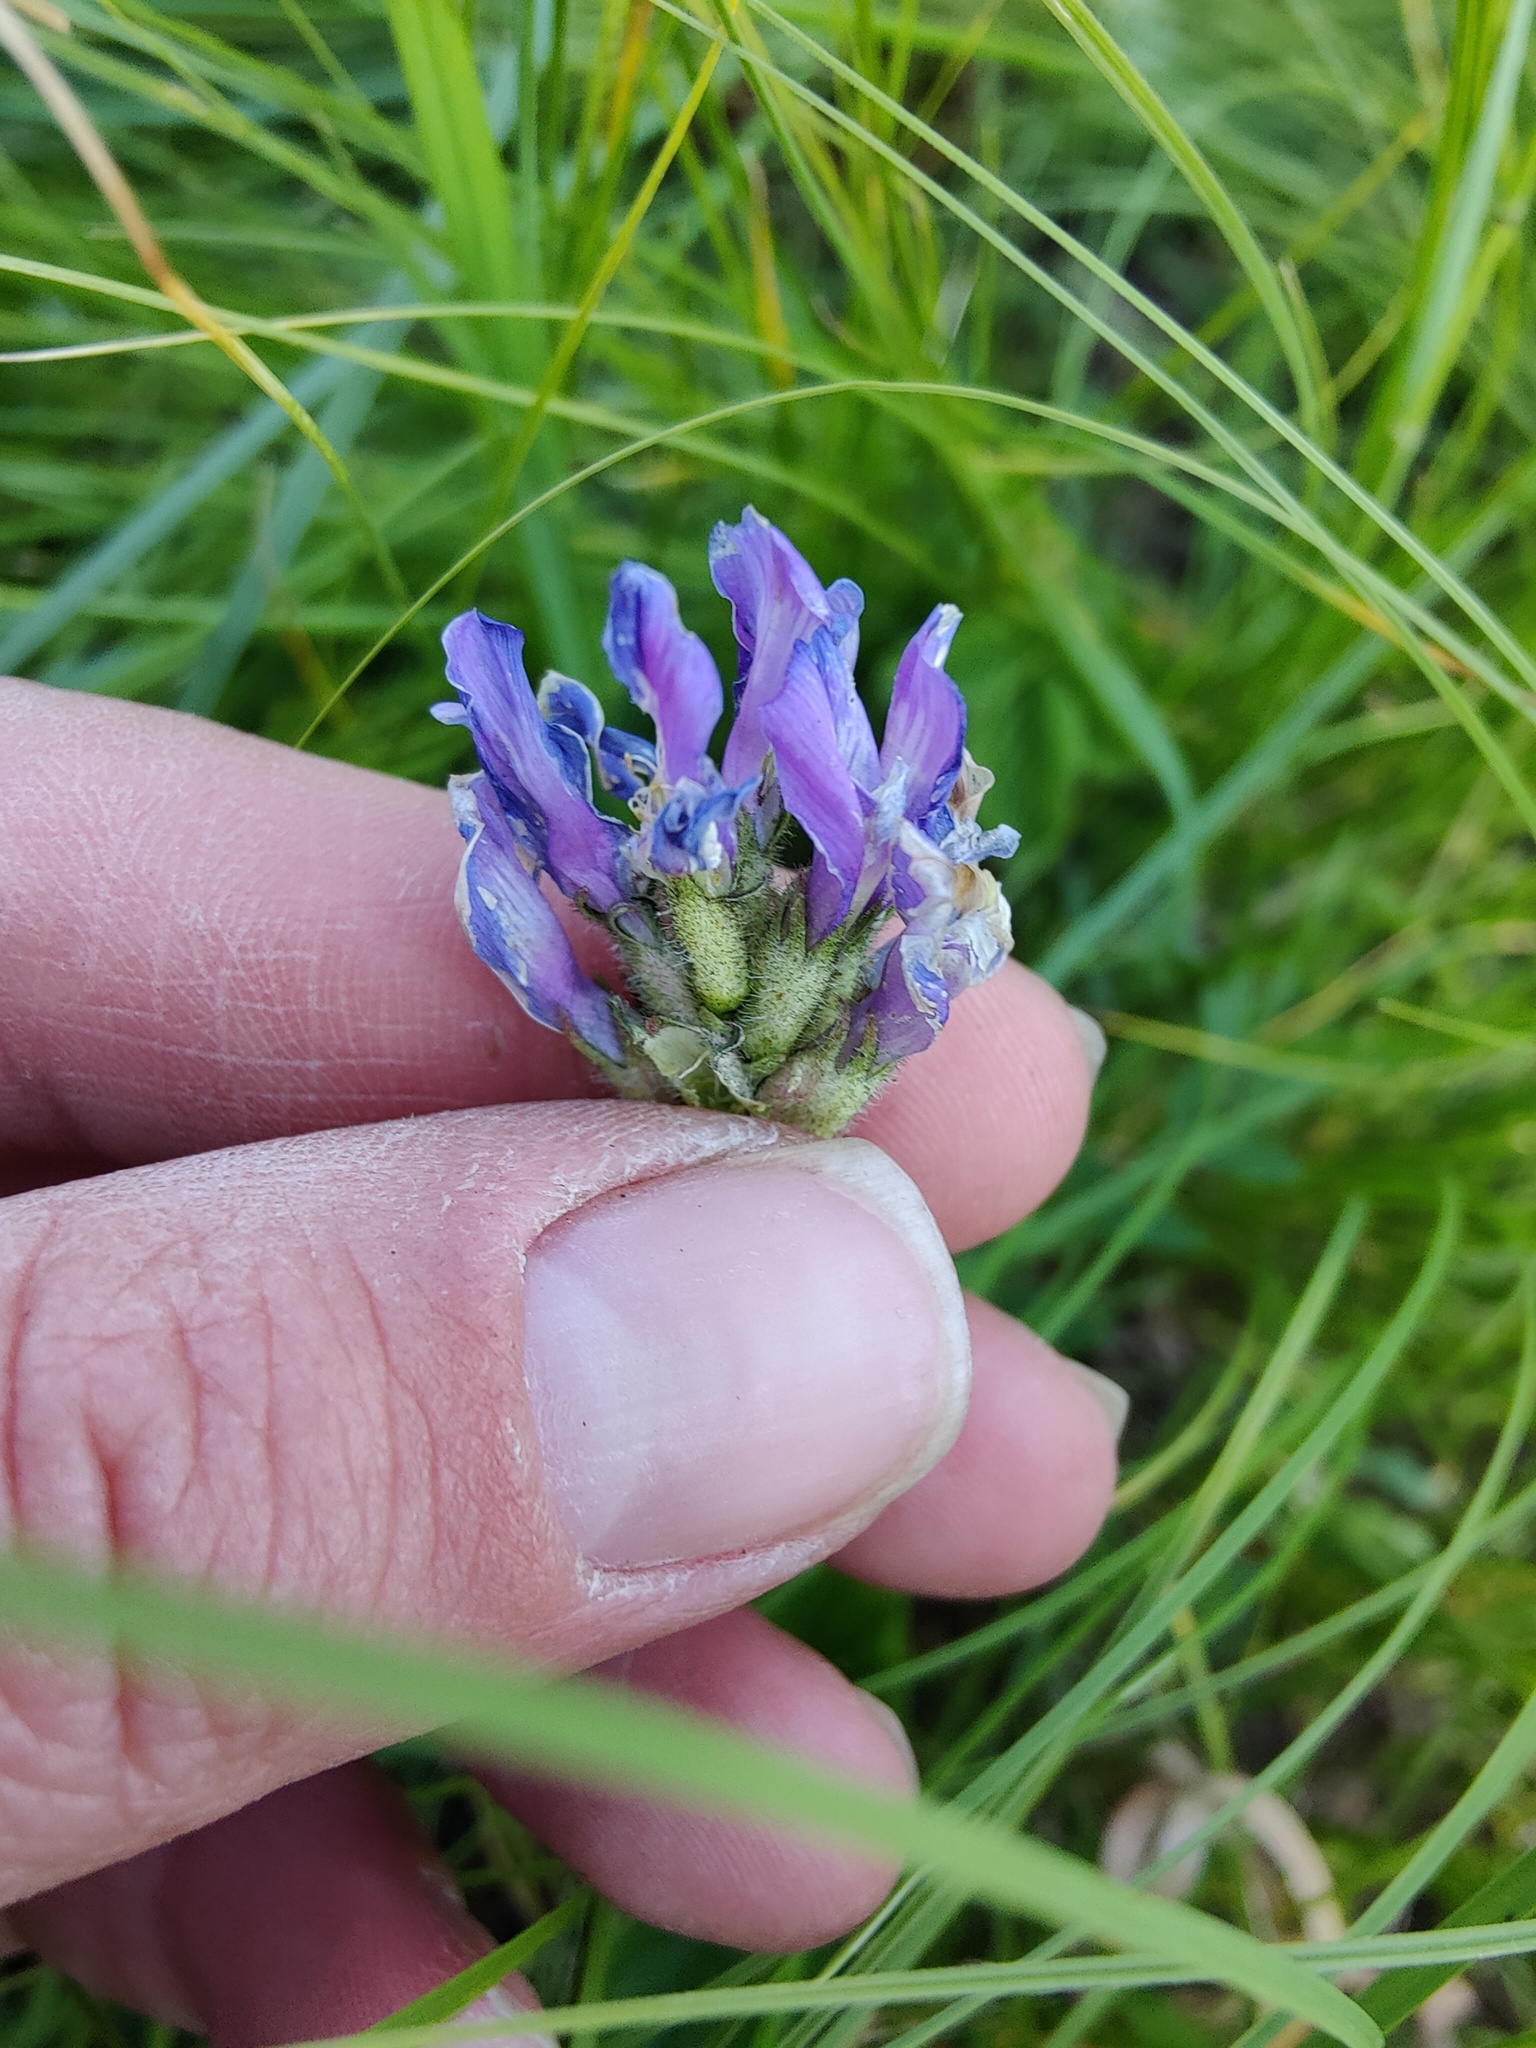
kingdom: Plantae
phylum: Tracheophyta
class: Magnoliopsida
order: Fabales
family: Fabaceae
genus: Astragalus
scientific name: Astragalus danicus
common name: Purple milk-vetch
